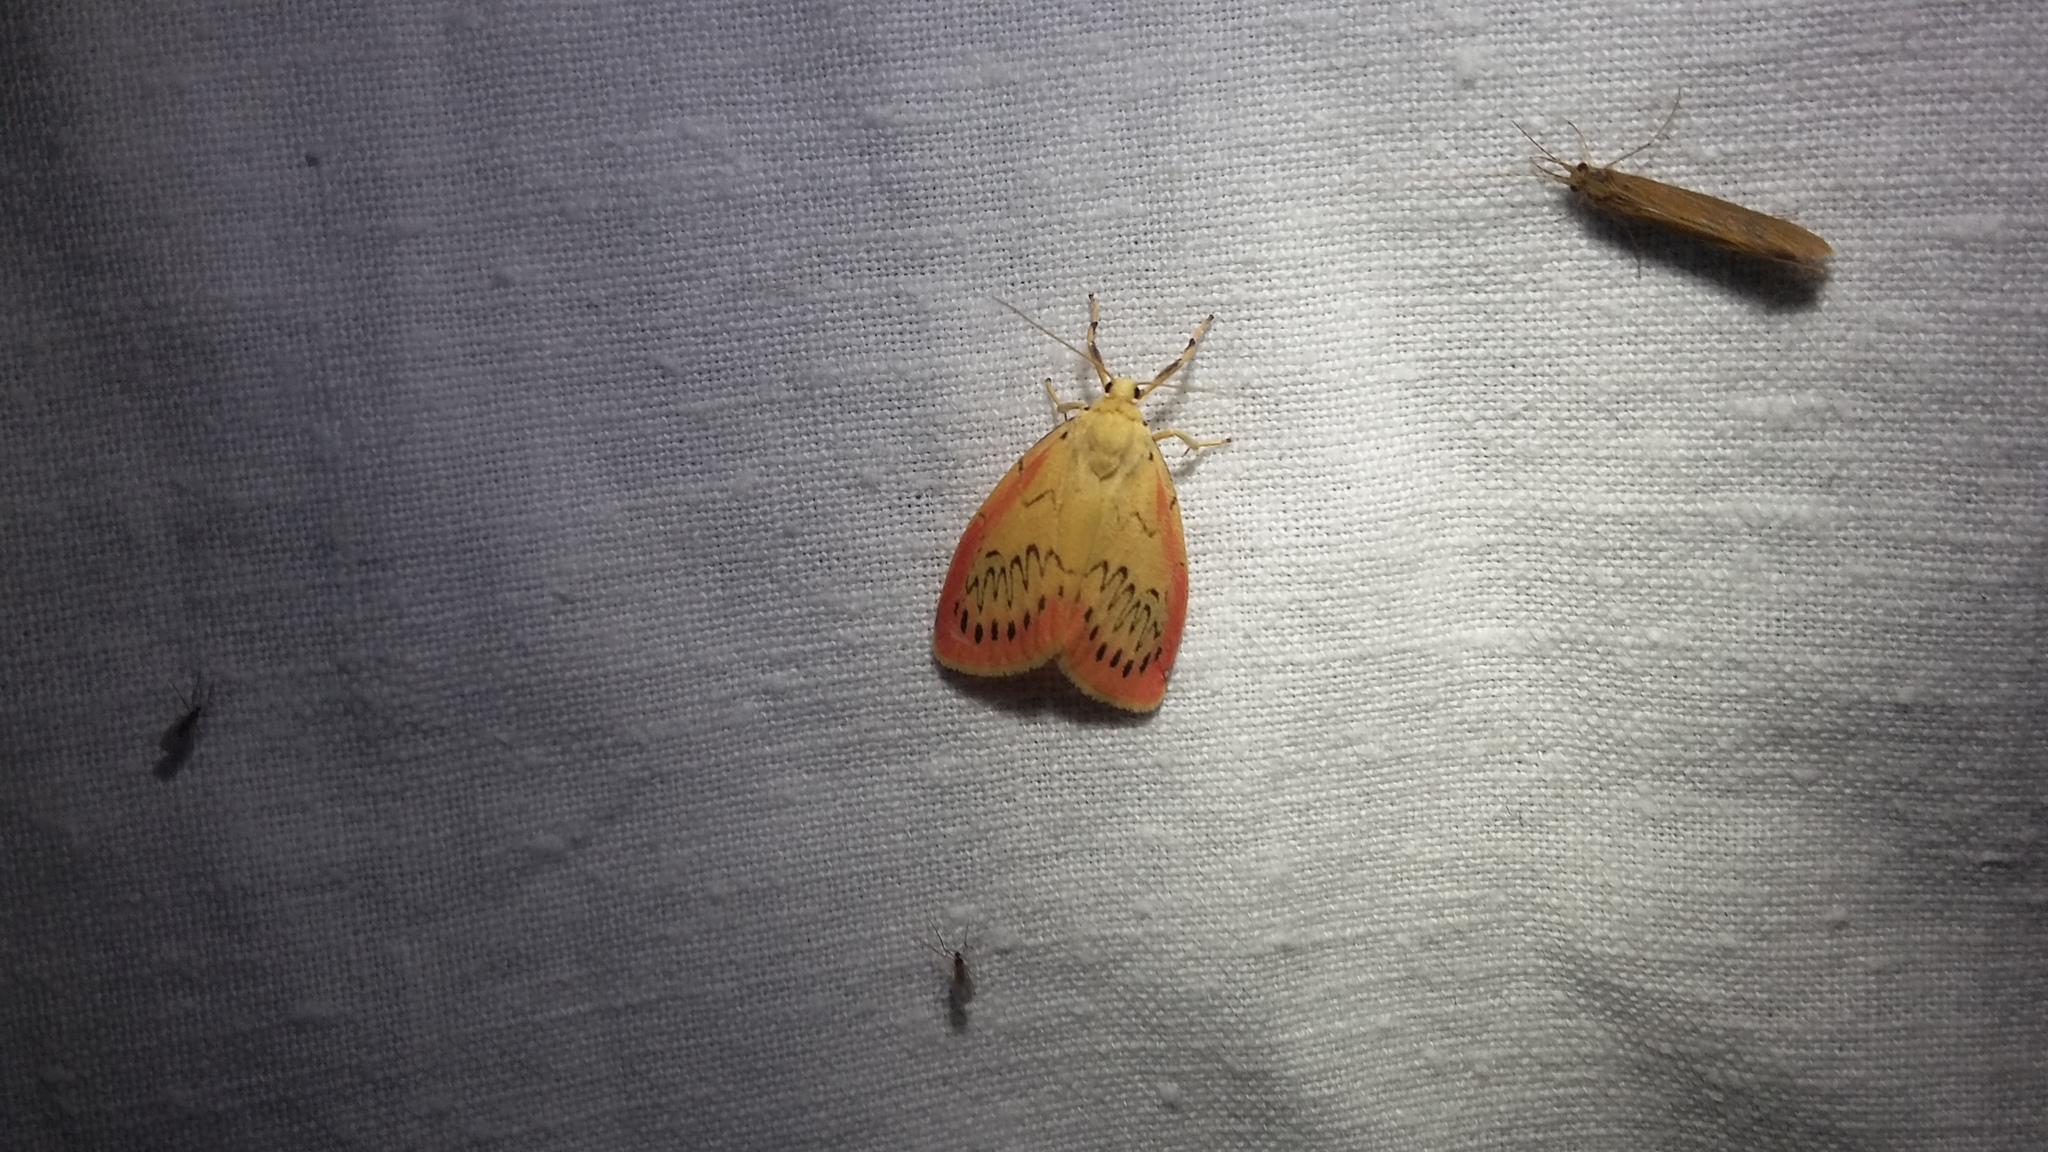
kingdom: Animalia
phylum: Arthropoda
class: Insecta
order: Lepidoptera
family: Erebidae
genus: Miltochrista
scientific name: Miltochrista miniata
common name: Rosy footman
